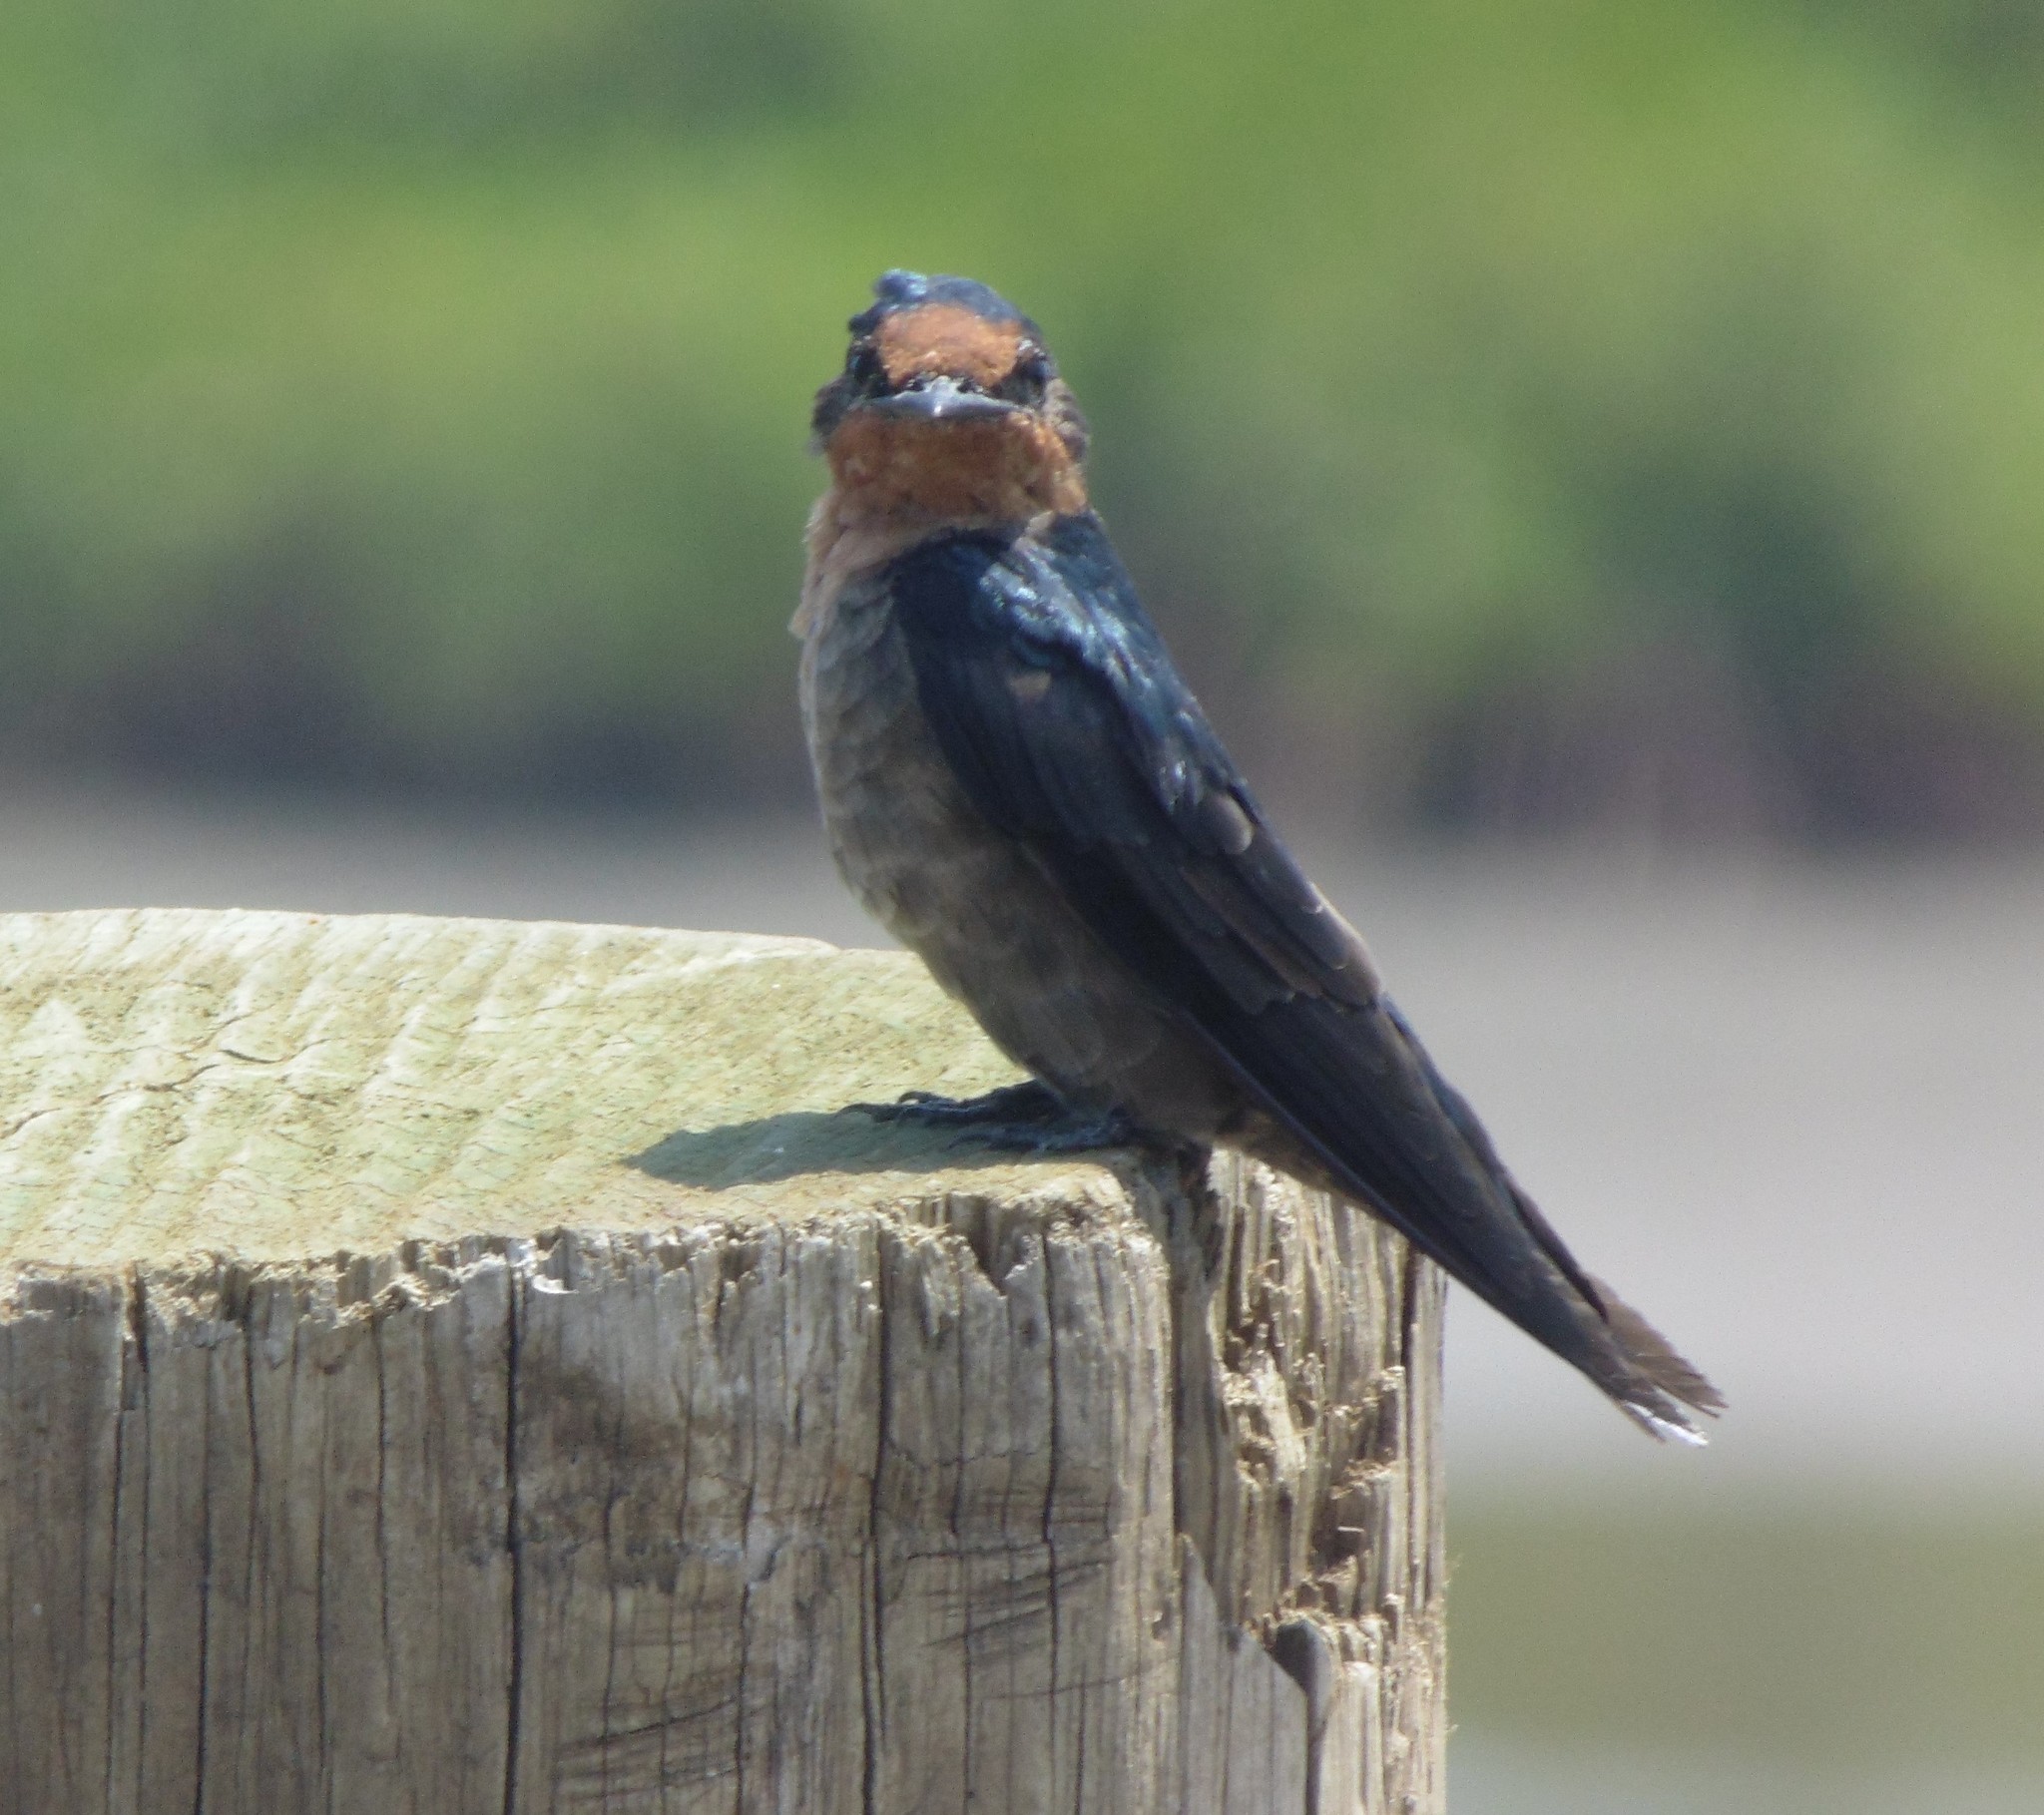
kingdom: Animalia
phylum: Chordata
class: Aves
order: Passeriformes
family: Hirundinidae
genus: Hirundo
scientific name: Hirundo tahitica
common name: Pacific swallow
